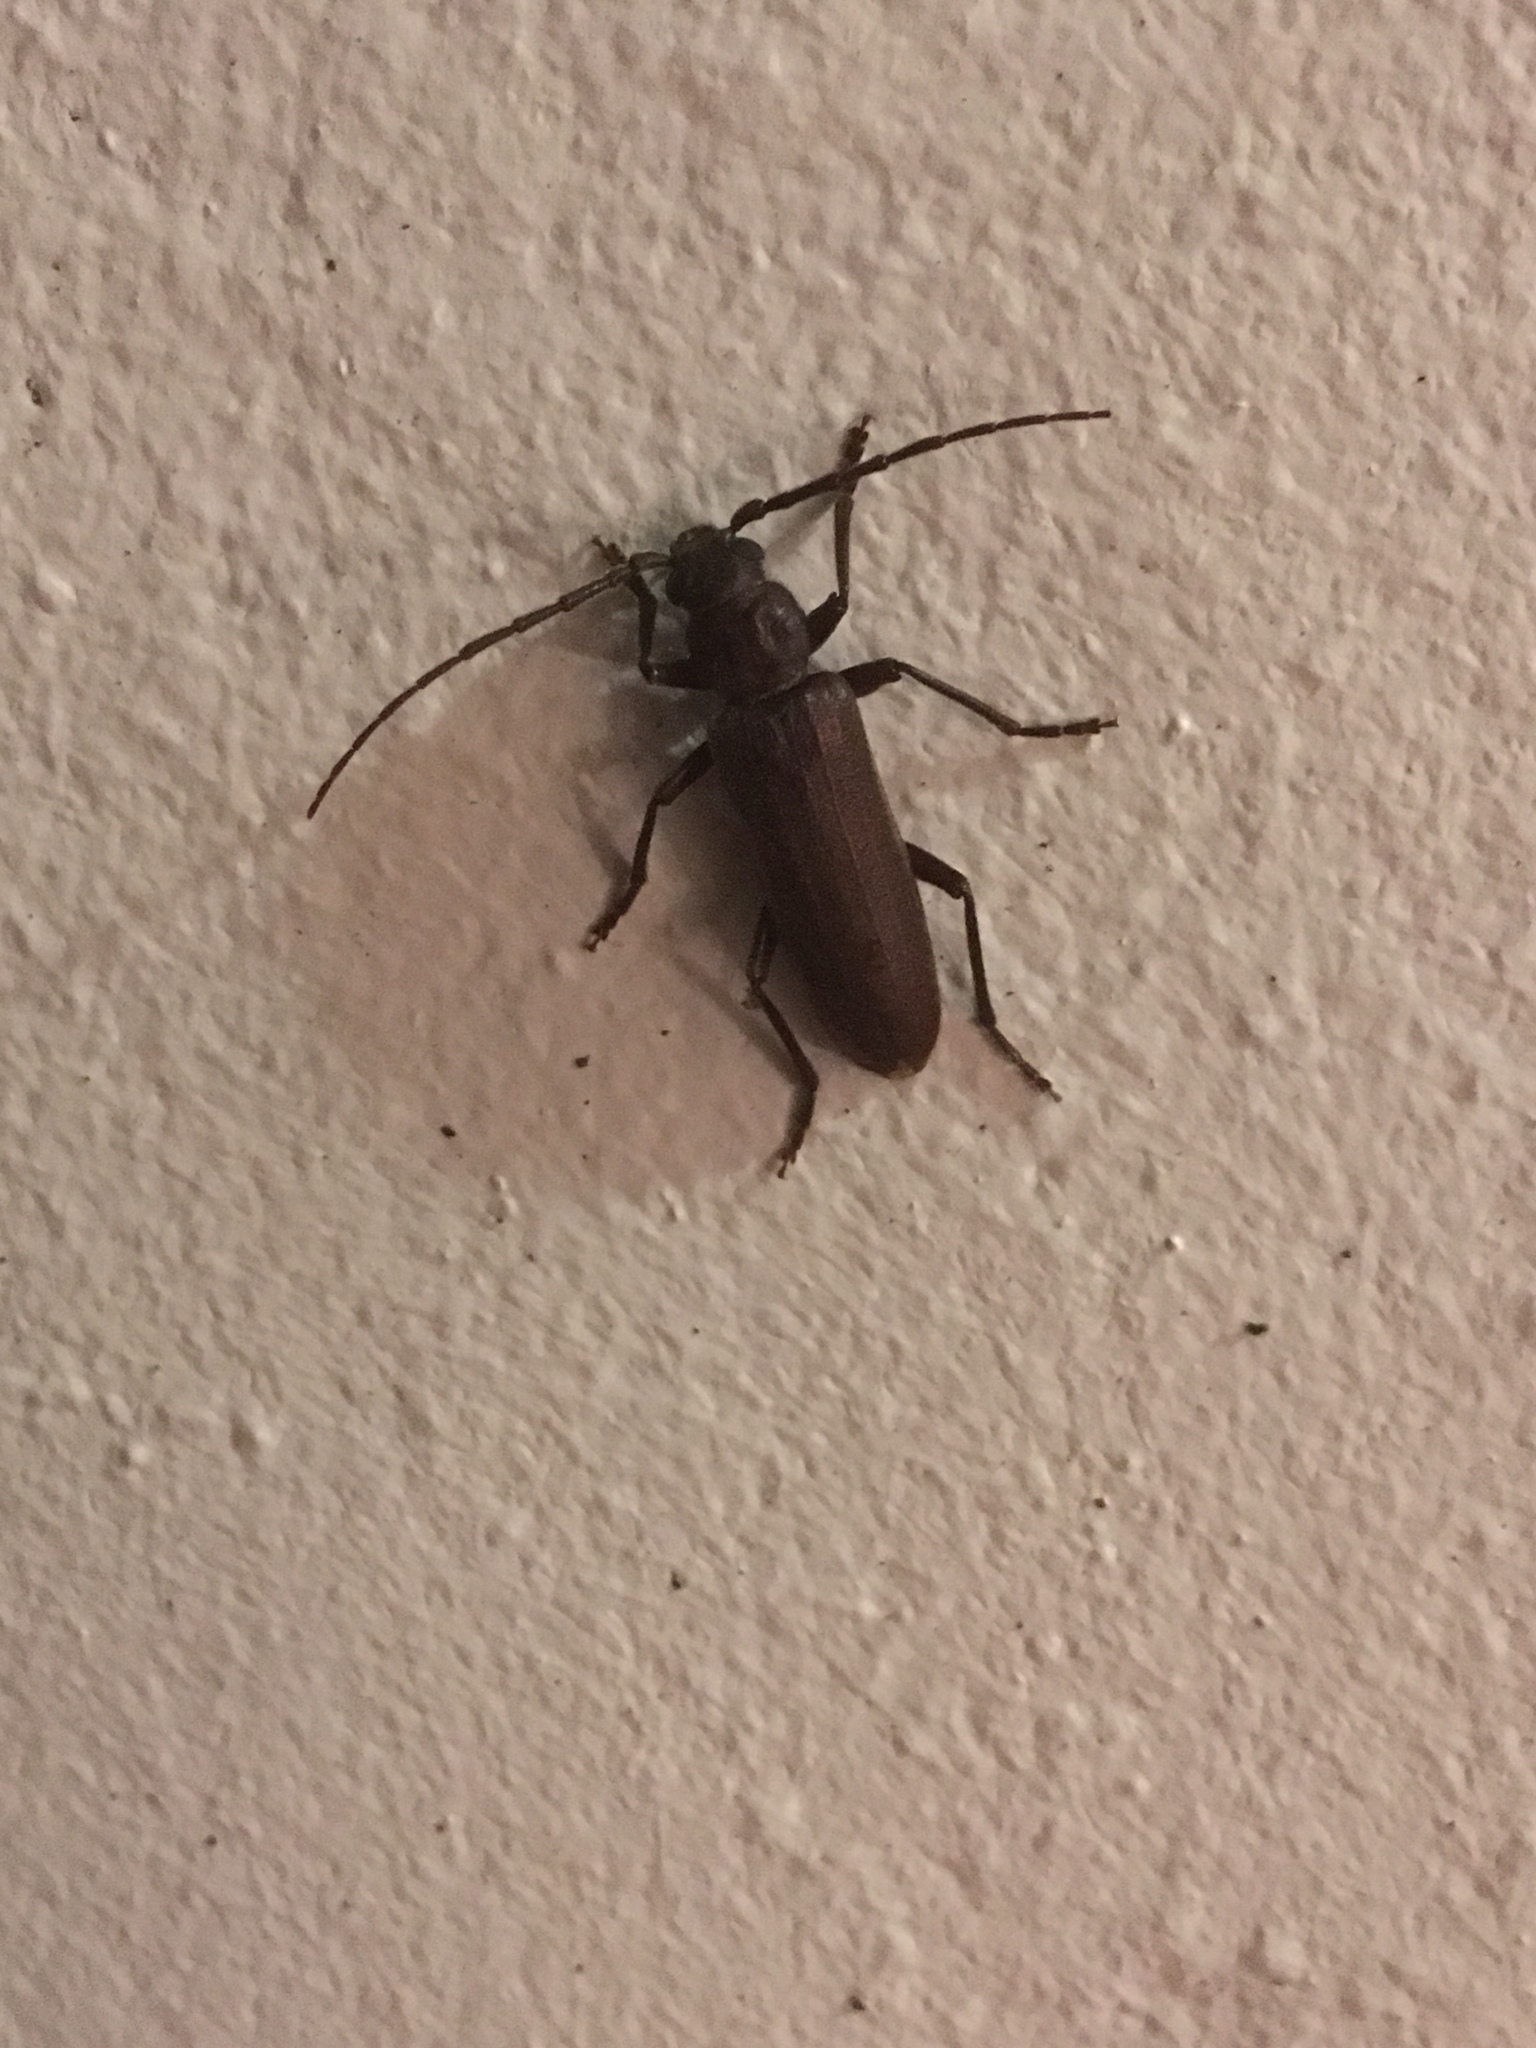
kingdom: Animalia
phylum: Arthropoda
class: Insecta
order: Coleoptera
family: Cerambycidae
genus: Arhopalus
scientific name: Arhopalus rusticus
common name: Rust pine borer
